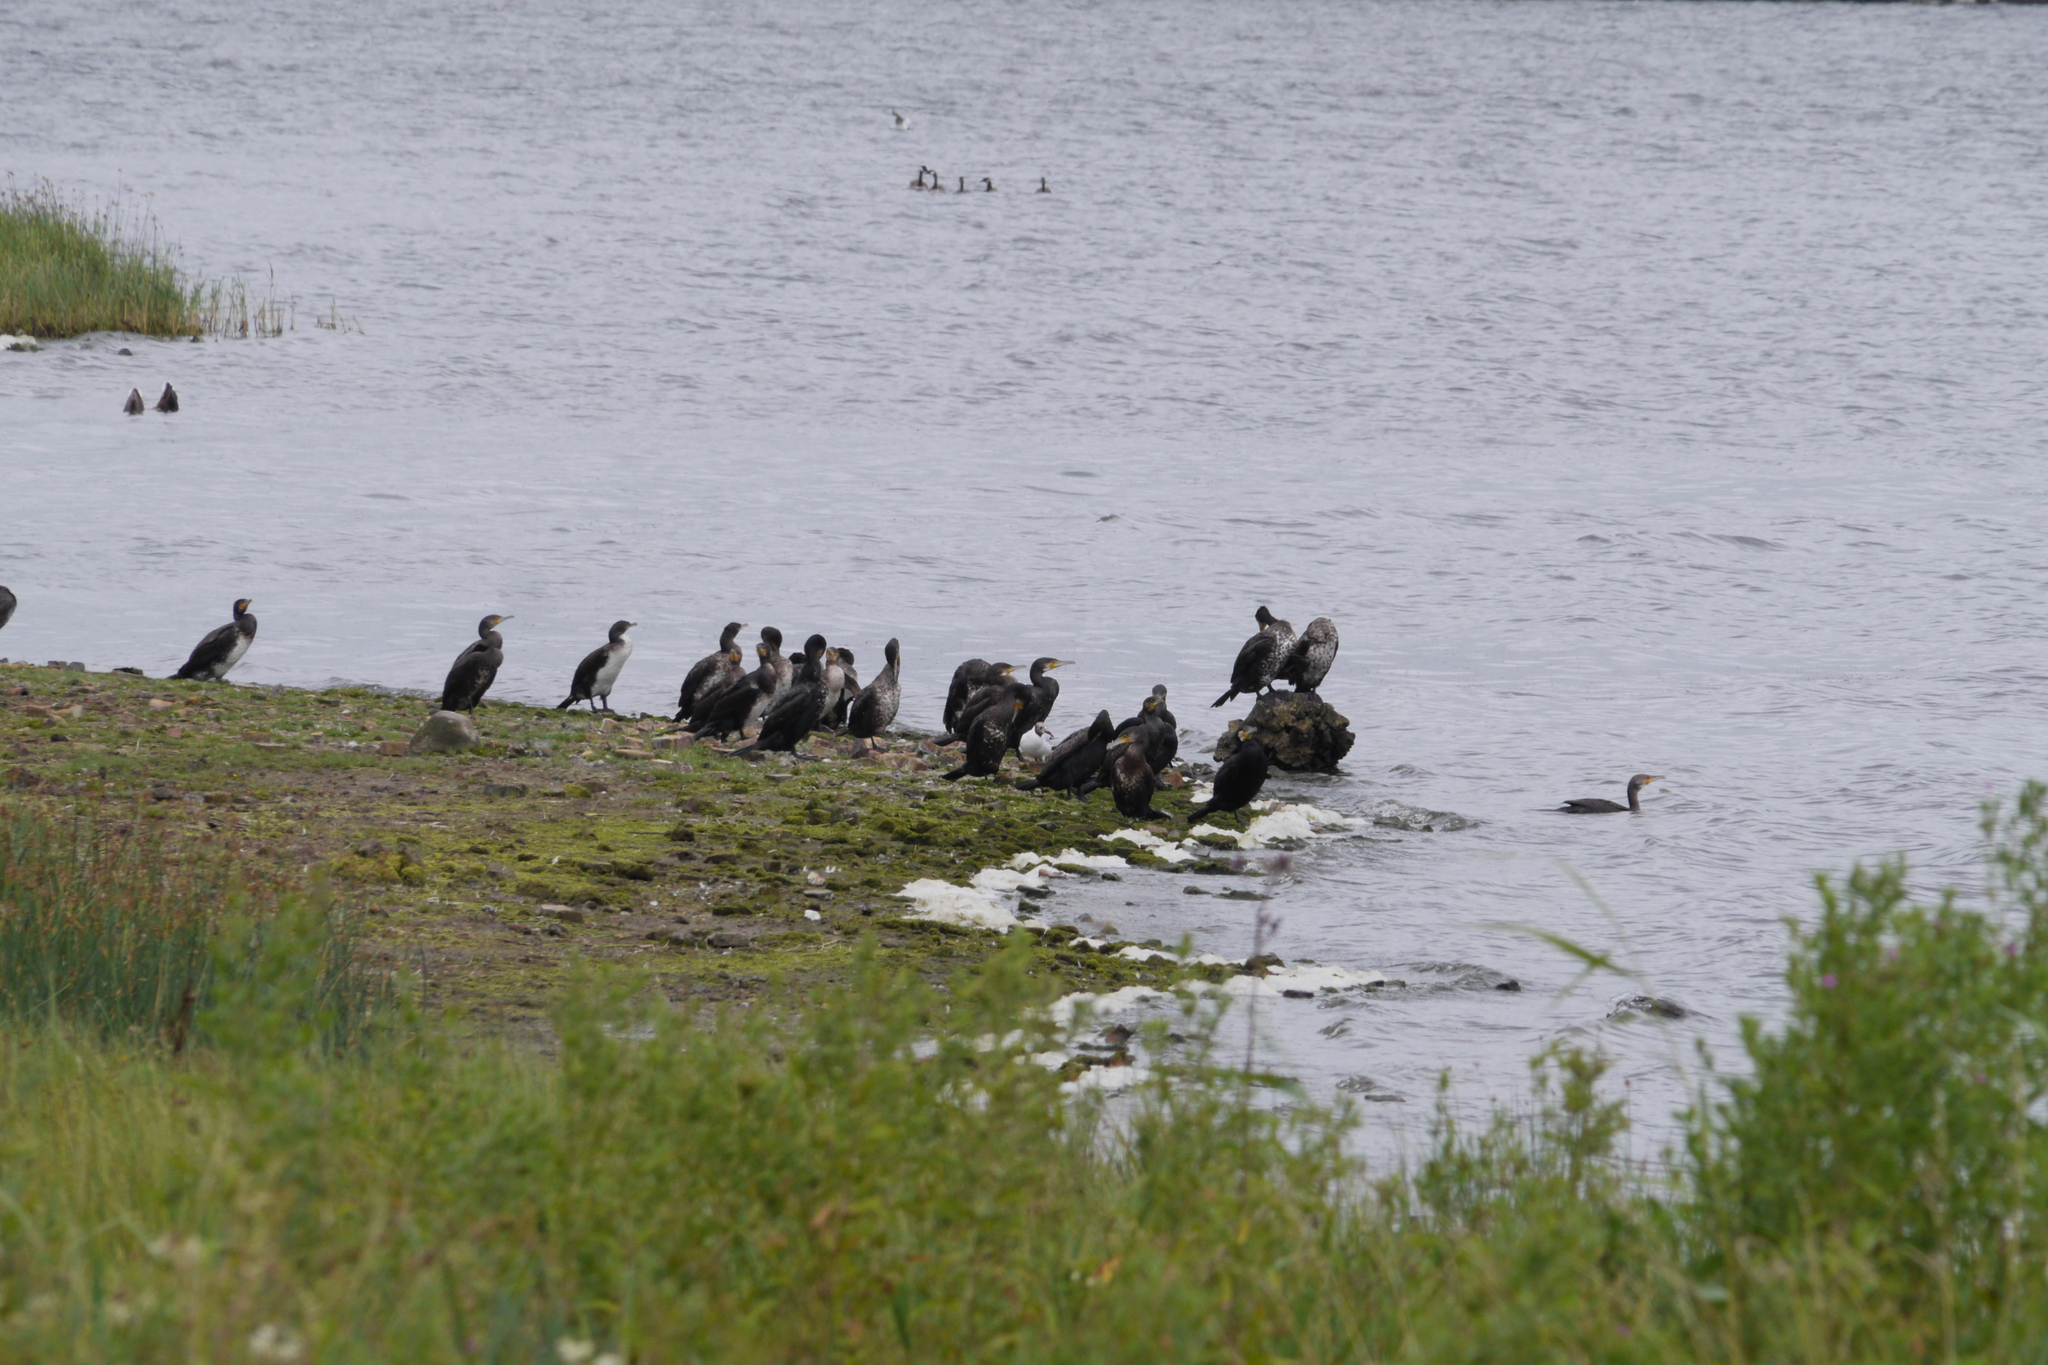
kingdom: Animalia
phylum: Chordata
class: Aves
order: Suliformes
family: Phalacrocoracidae
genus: Phalacrocorax
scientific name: Phalacrocorax carbo
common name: Great cormorant
